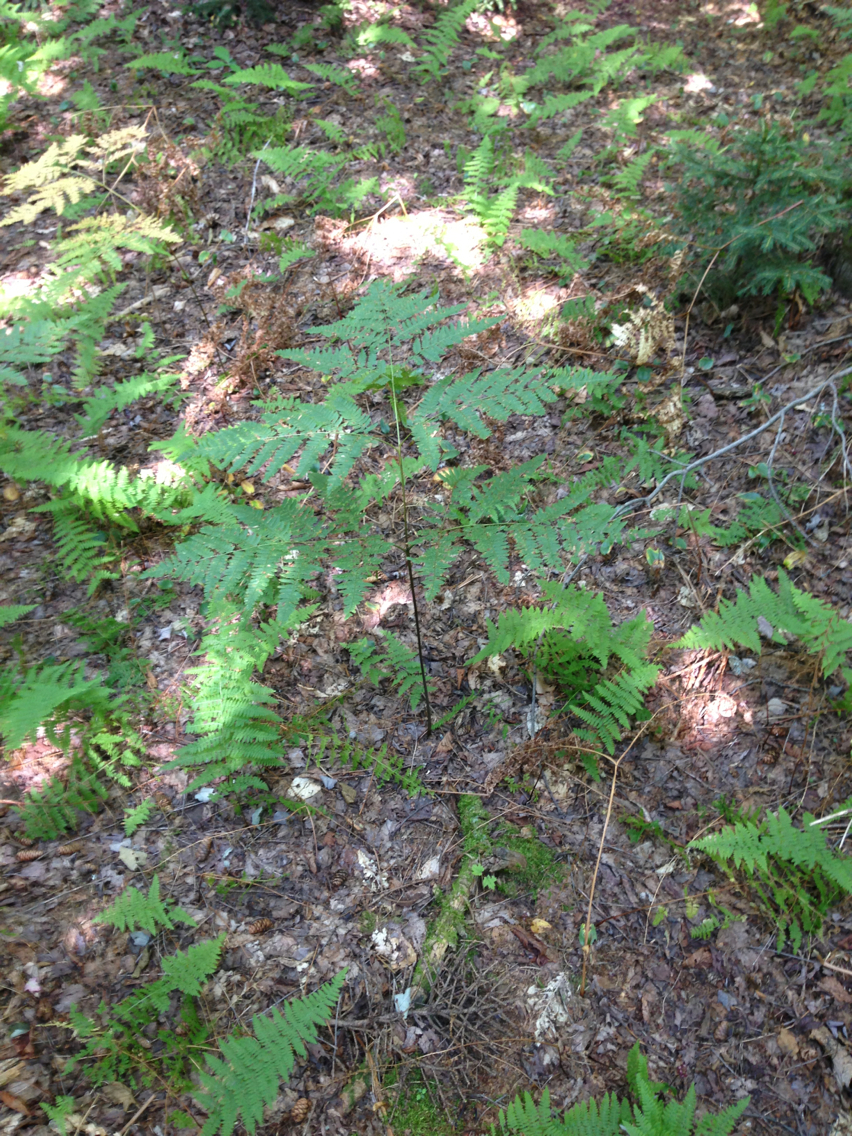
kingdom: Plantae
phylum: Tracheophyta
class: Polypodiopsida
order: Polypodiales
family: Dennstaedtiaceae
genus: Pteridium
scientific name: Pteridium aquilinum
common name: Bracken
